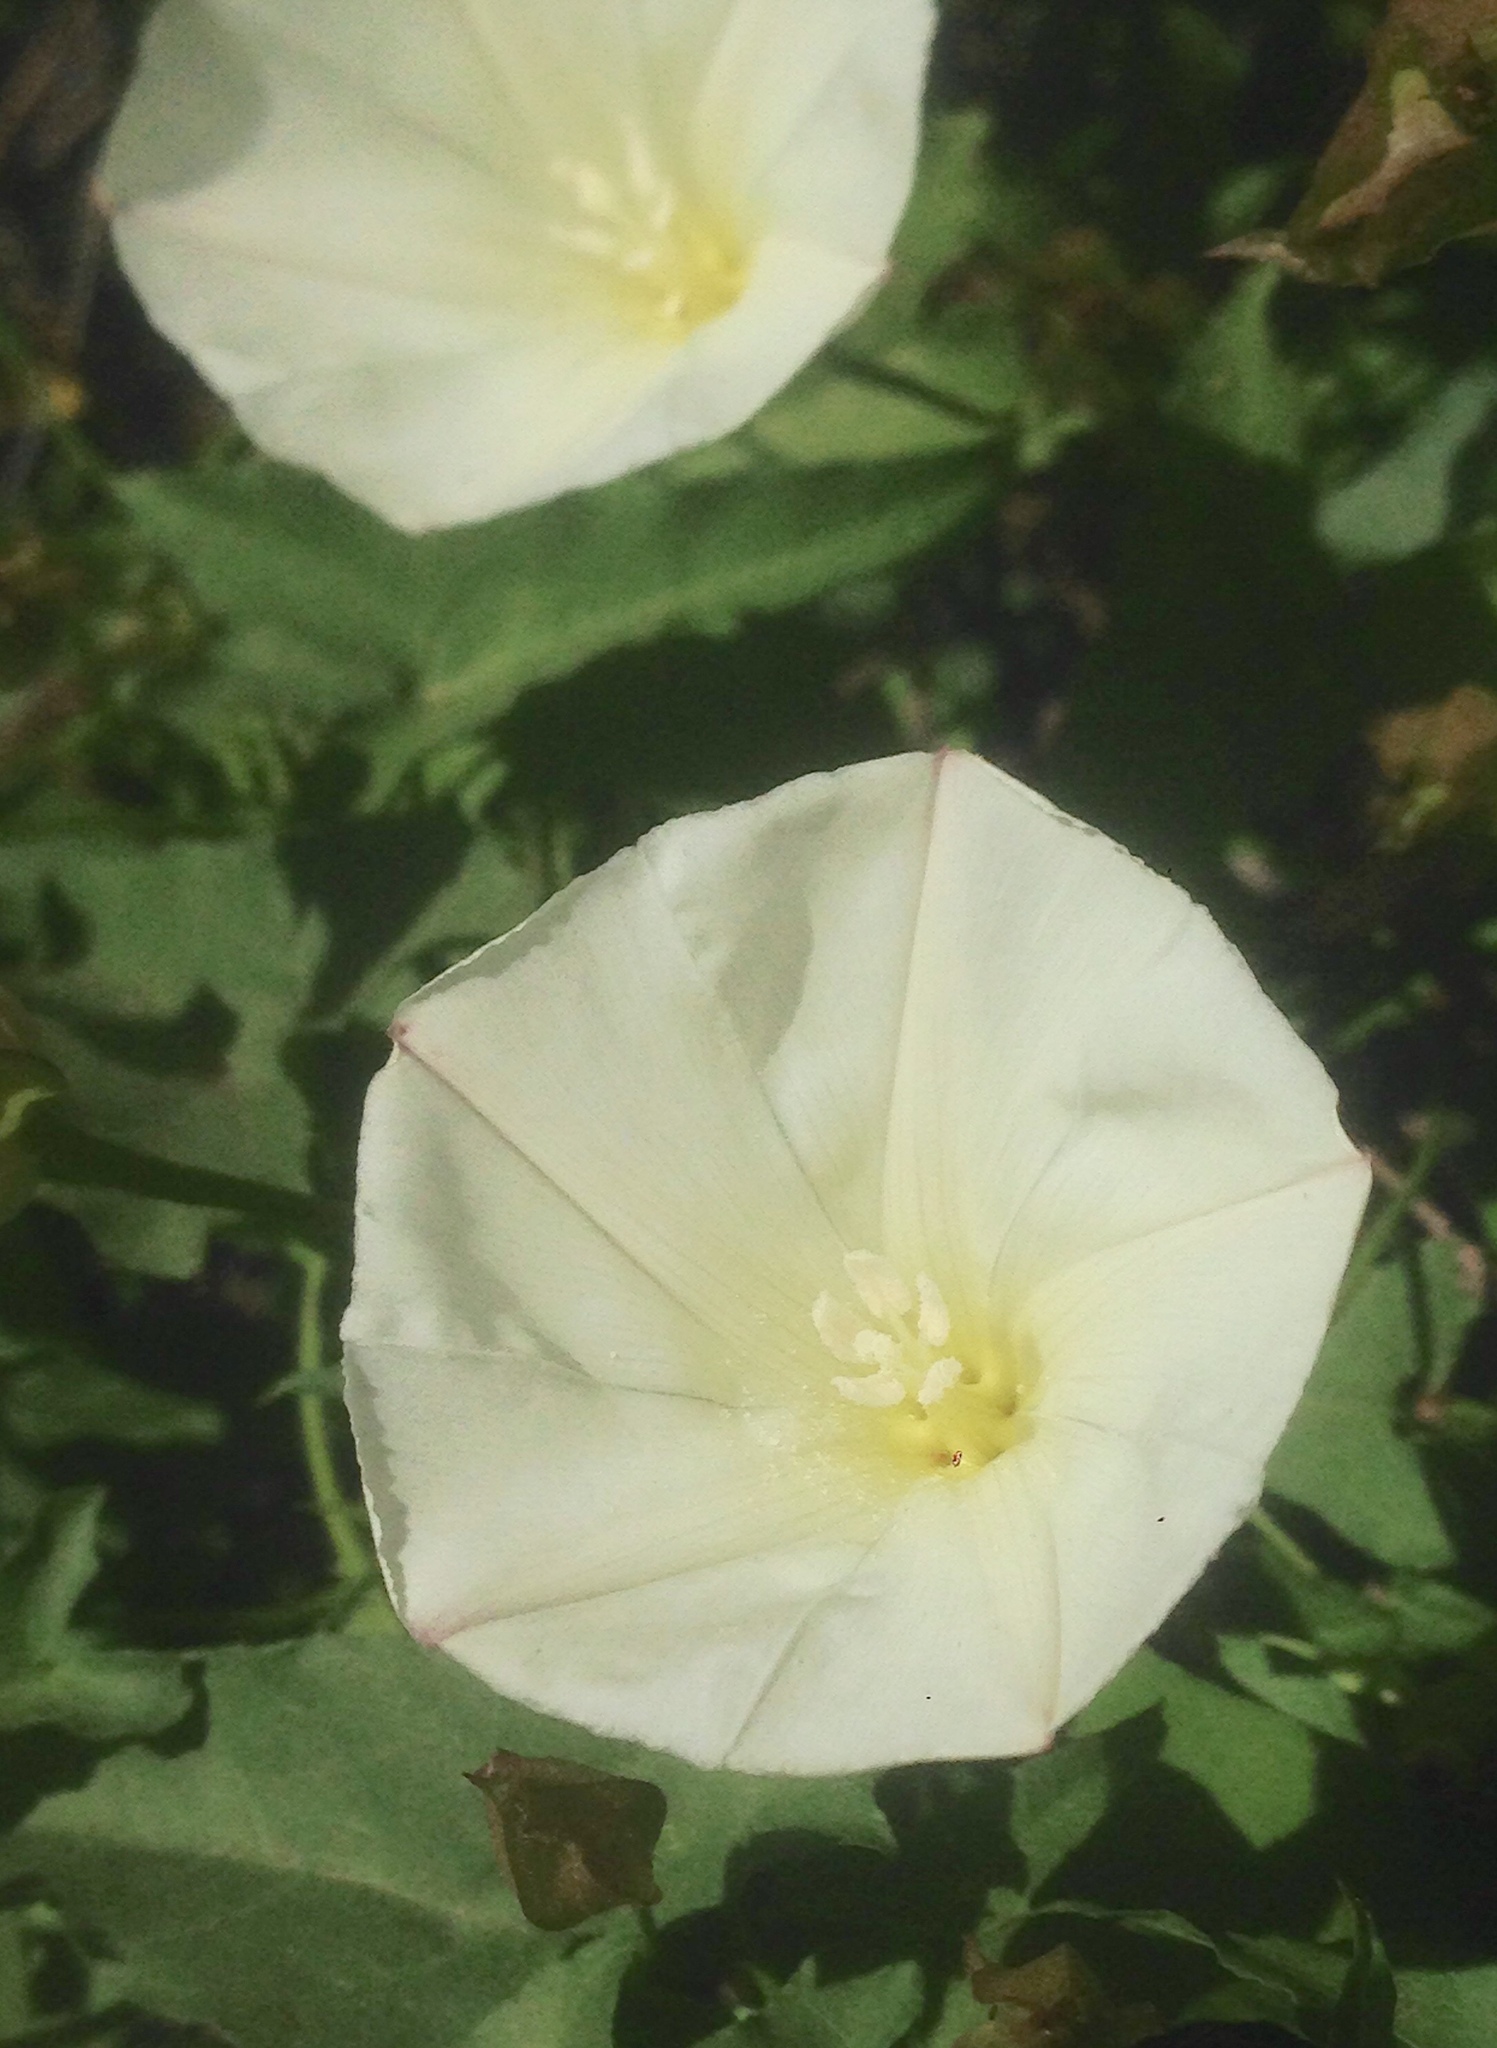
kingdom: Plantae
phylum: Tracheophyta
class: Magnoliopsida
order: Solanales
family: Convolvulaceae
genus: Calystegia
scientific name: Calystegia macrostegia
